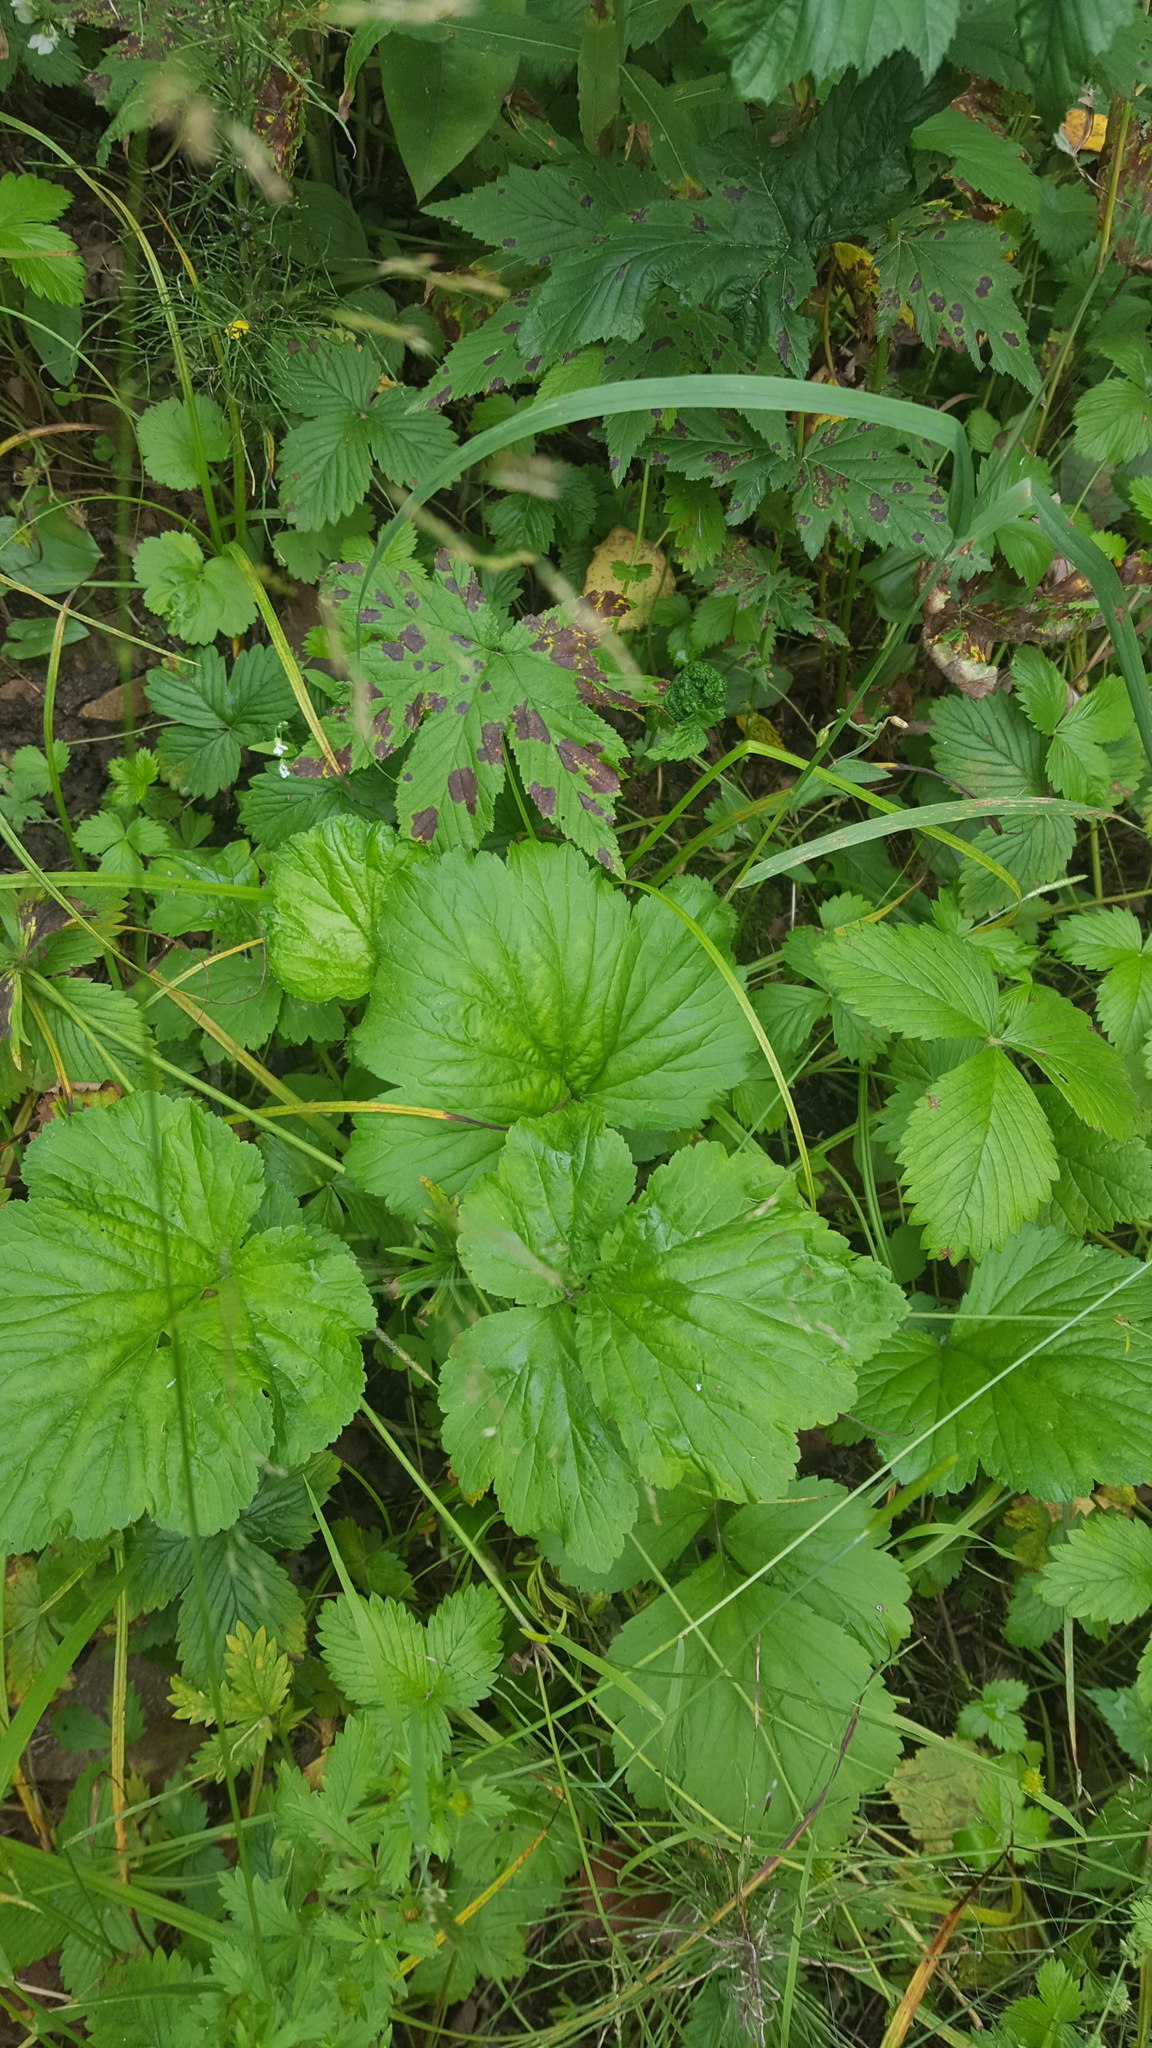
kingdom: Plantae
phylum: Tracheophyta
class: Magnoliopsida
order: Rosales
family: Rosaceae
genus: Geum
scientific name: Geum aleppicum
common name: Yellow avens
